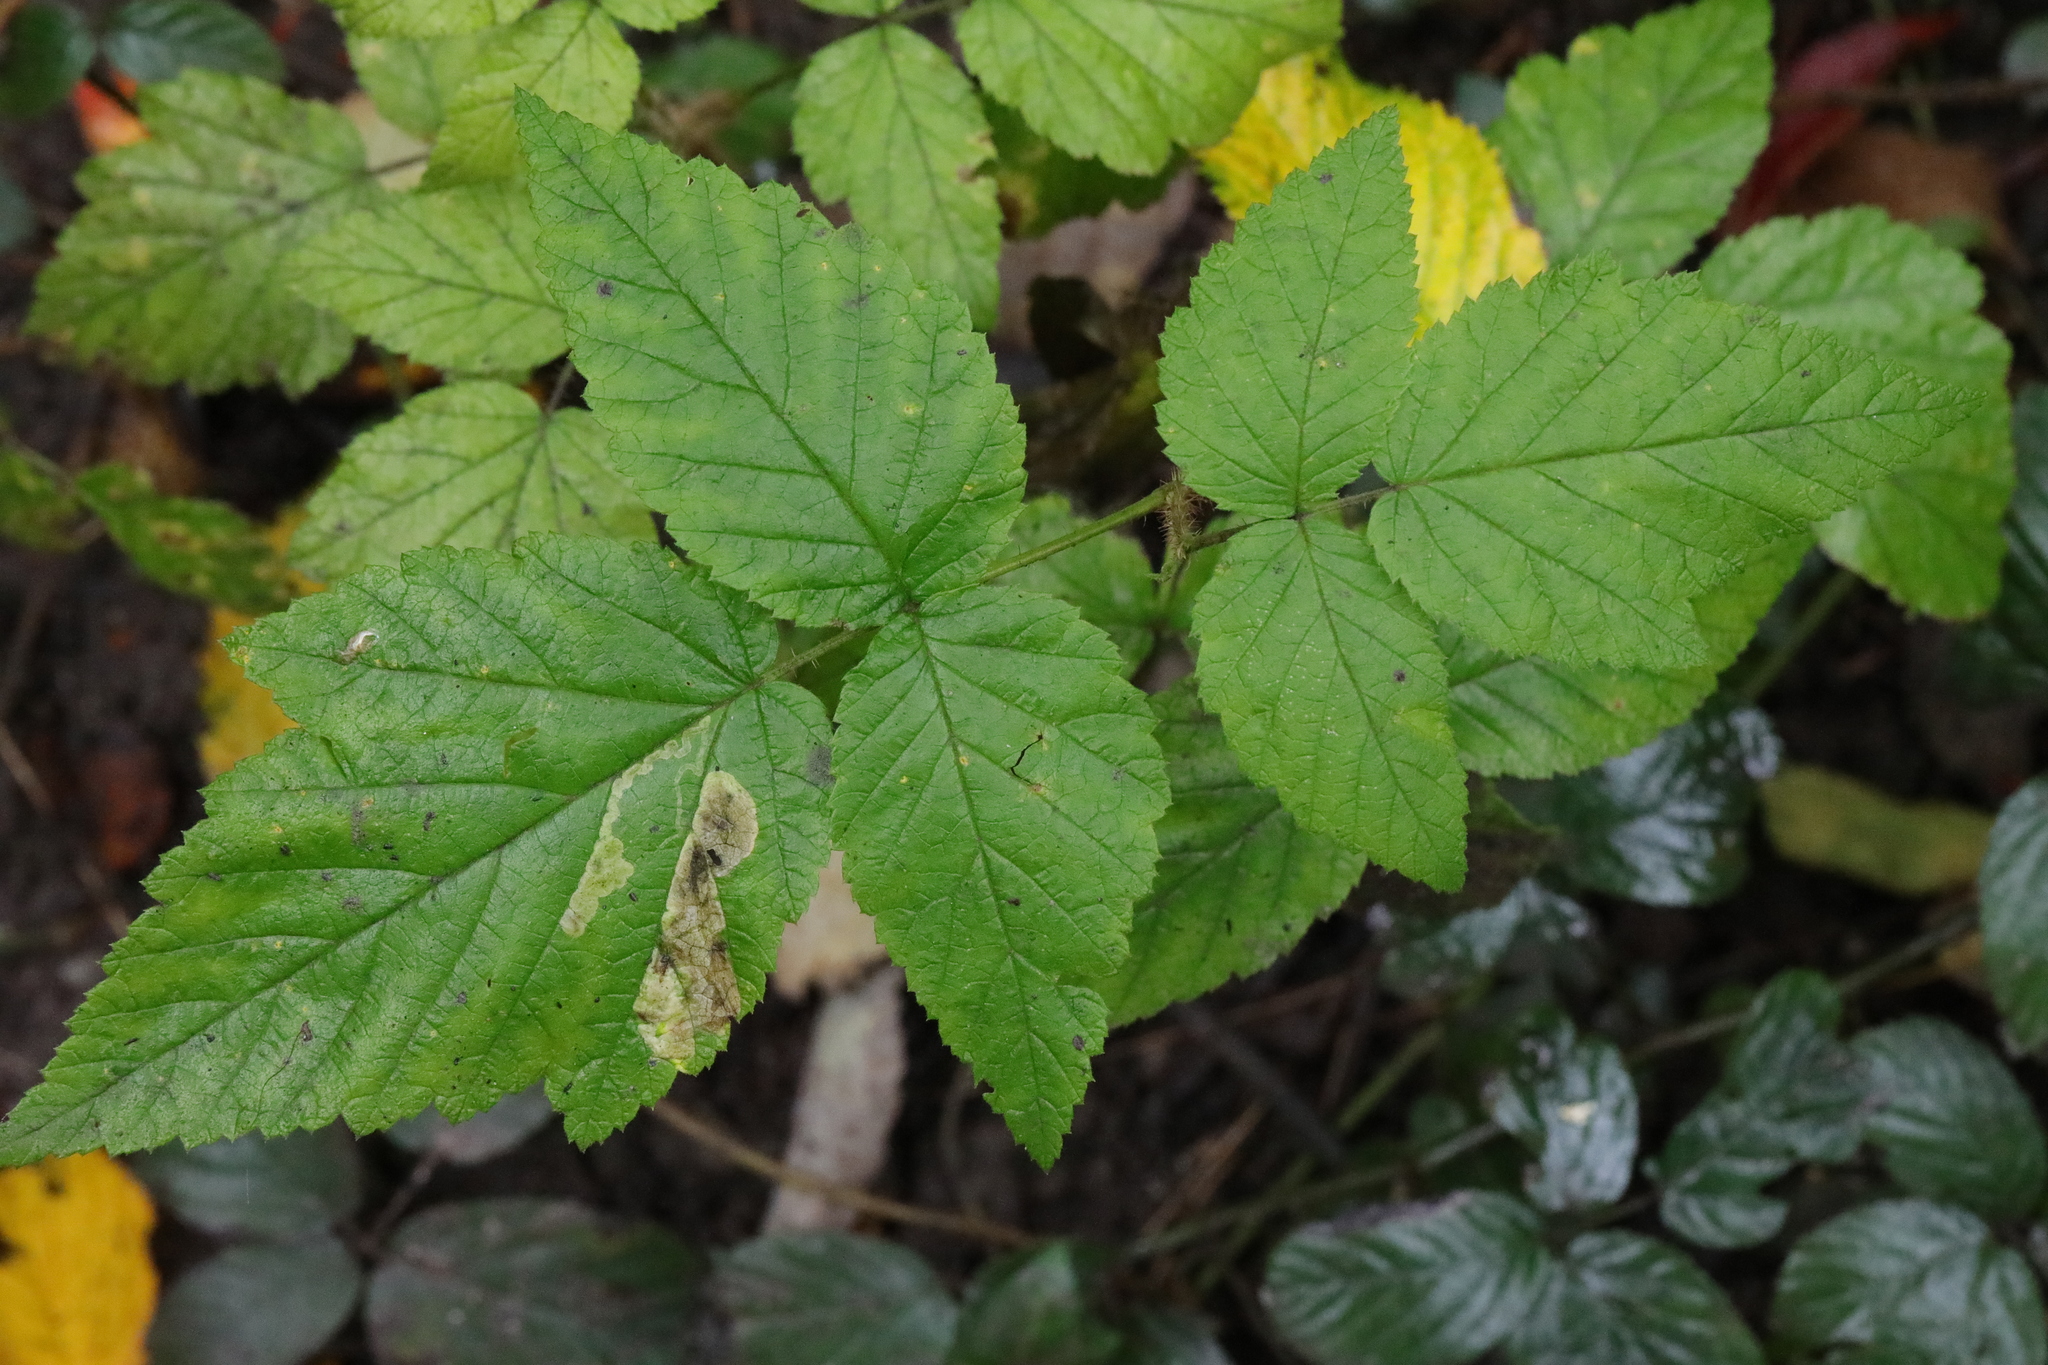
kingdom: Plantae
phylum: Tracheophyta
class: Magnoliopsida
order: Rosales
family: Rosaceae
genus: Rubus
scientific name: Rubus idaeus
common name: Raspberry
